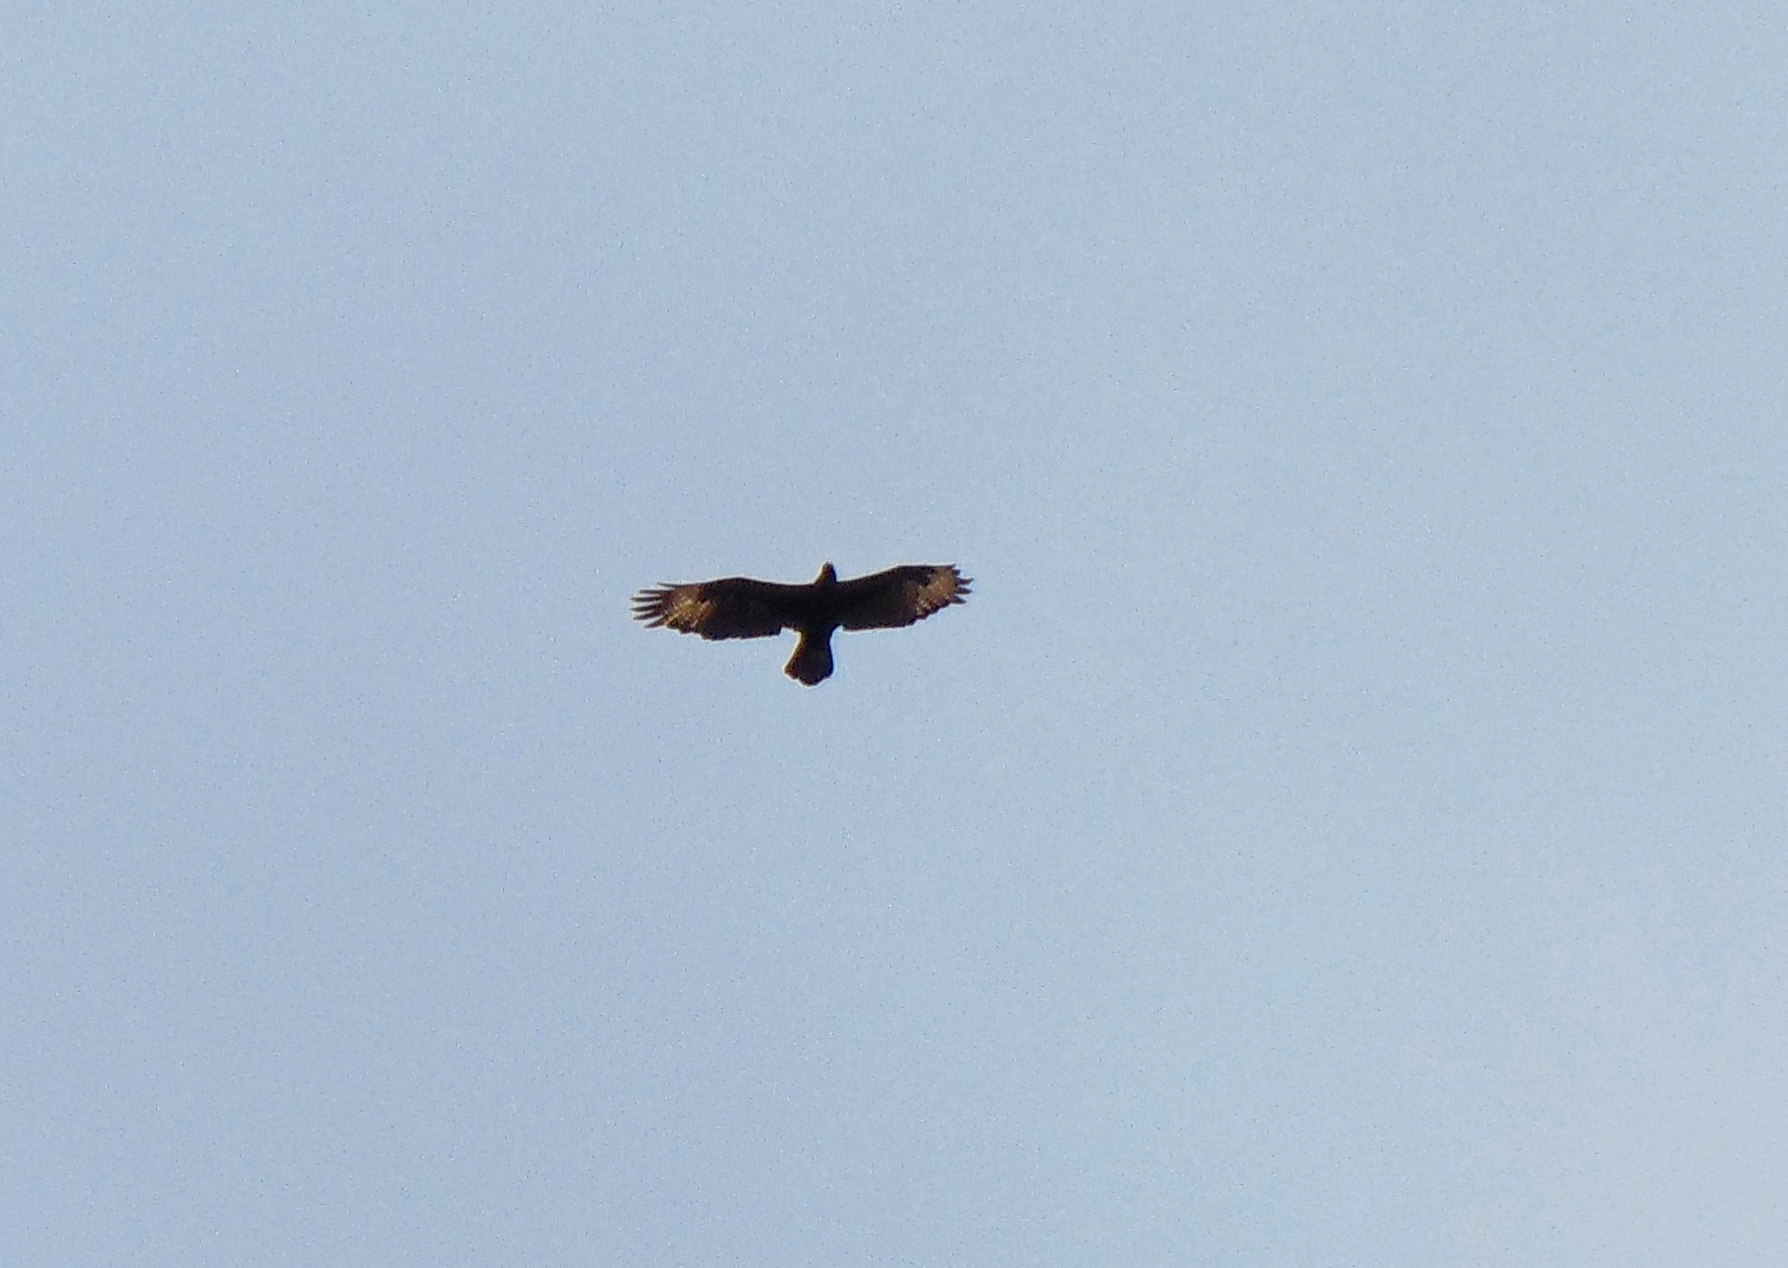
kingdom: Animalia
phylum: Chordata
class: Aves
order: Accipitriformes
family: Accipitridae
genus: Aquila
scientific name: Aquila verreauxii
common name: Verreaux's eagle
